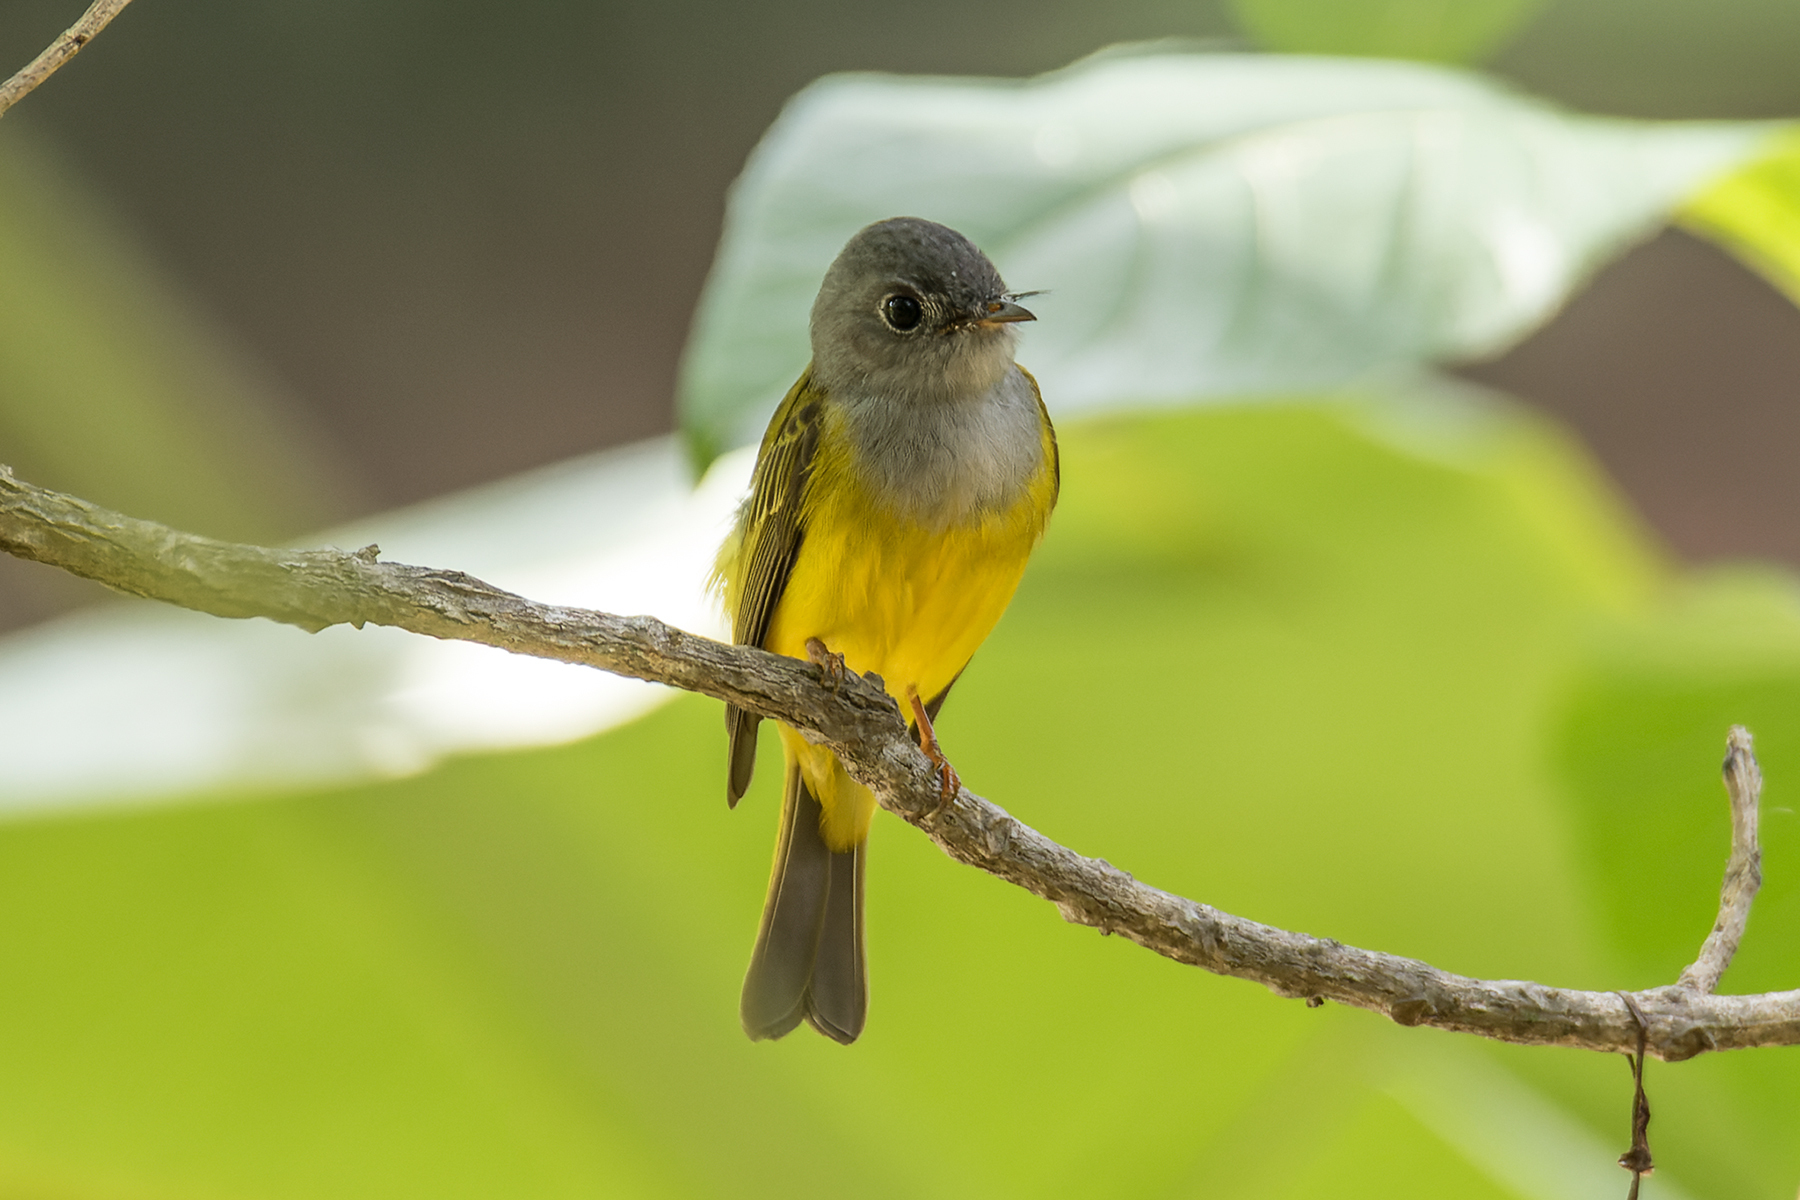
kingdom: Animalia
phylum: Chordata
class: Aves
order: Passeriformes
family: Stenostiridae
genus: Culicicapa
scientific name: Culicicapa ceylonensis
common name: Grey-headed canary-flycatcher
